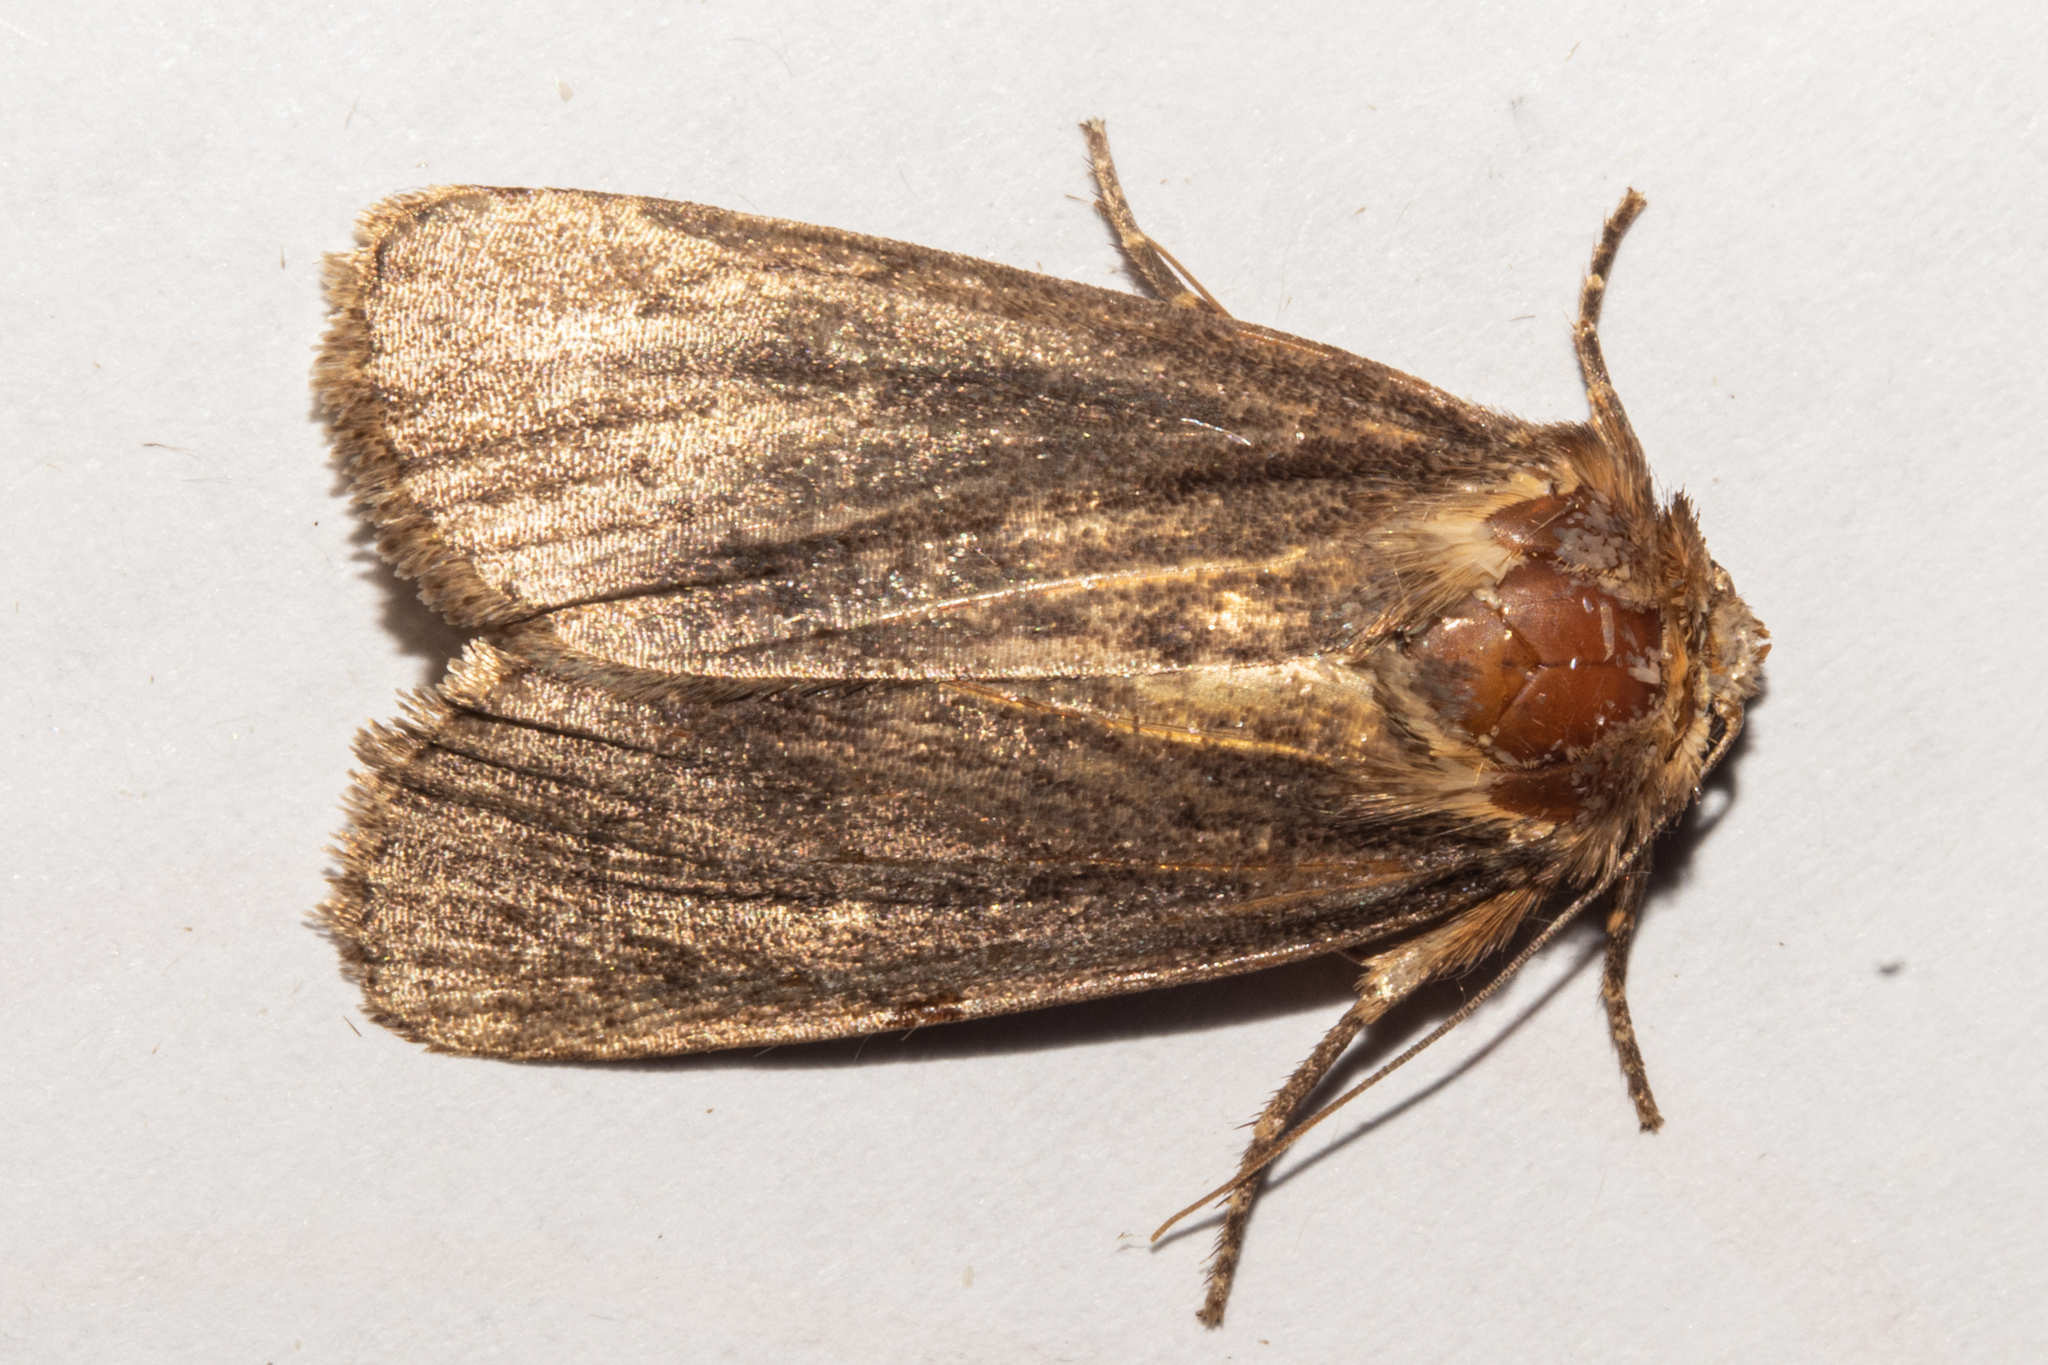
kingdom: Animalia
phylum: Arthropoda
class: Insecta
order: Lepidoptera
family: Noctuidae
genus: Bityla
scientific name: Bityla defigurata
